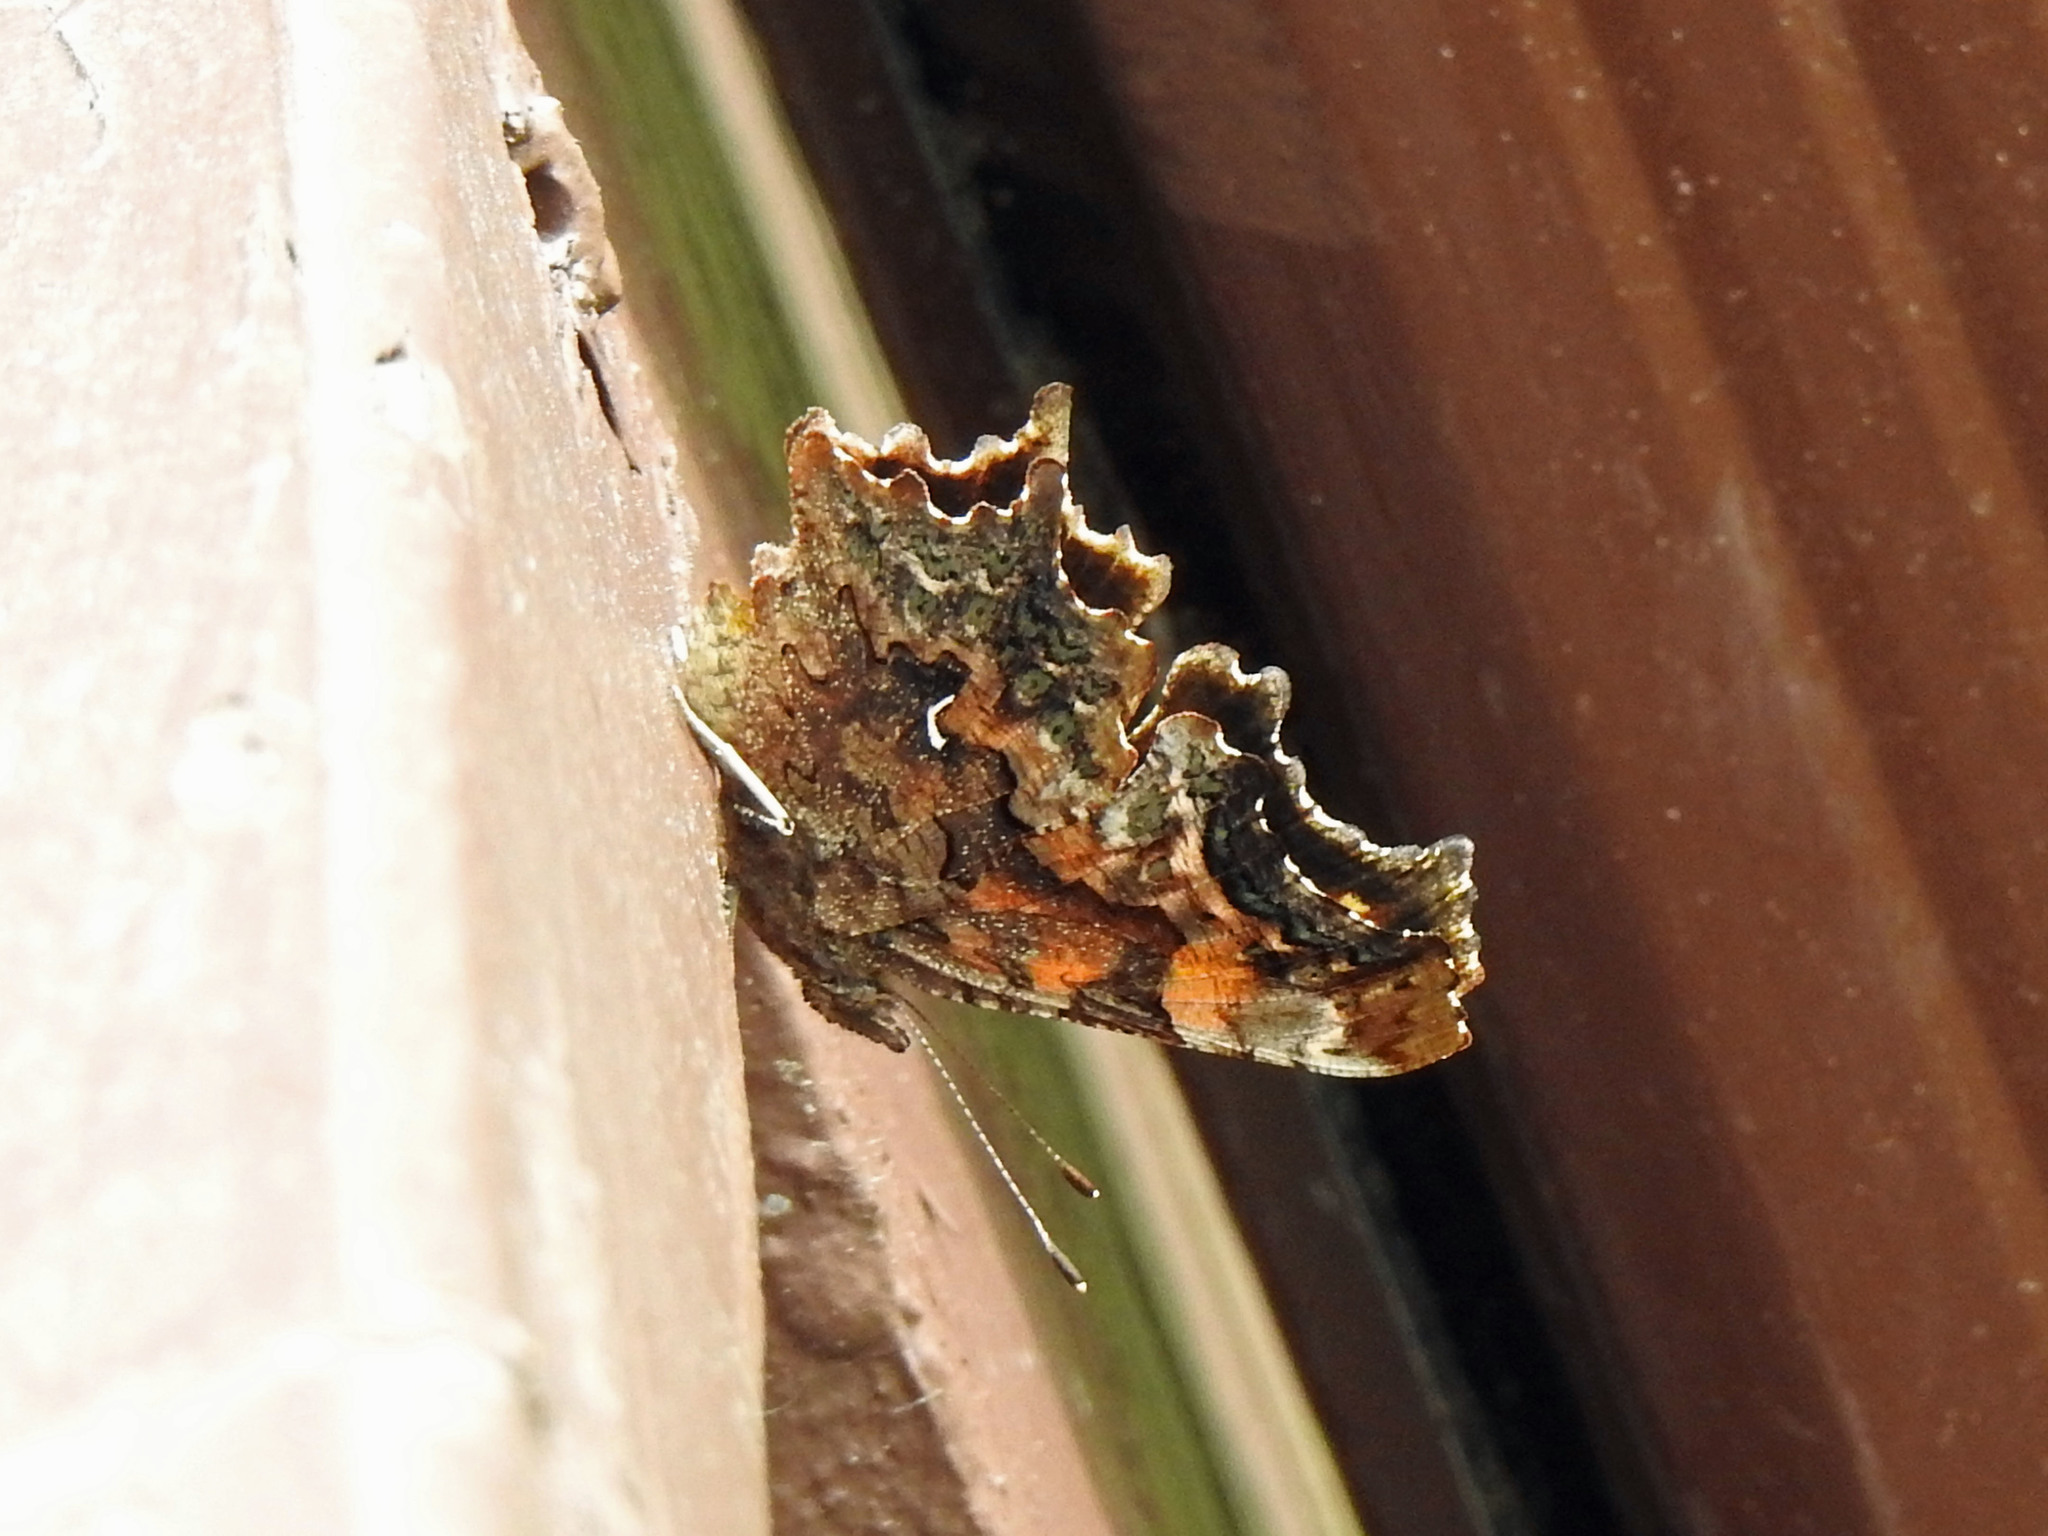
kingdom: Animalia
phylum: Arthropoda
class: Insecta
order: Lepidoptera
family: Nymphalidae
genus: Polygonia
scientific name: Polygonia faunus
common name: Green comma
